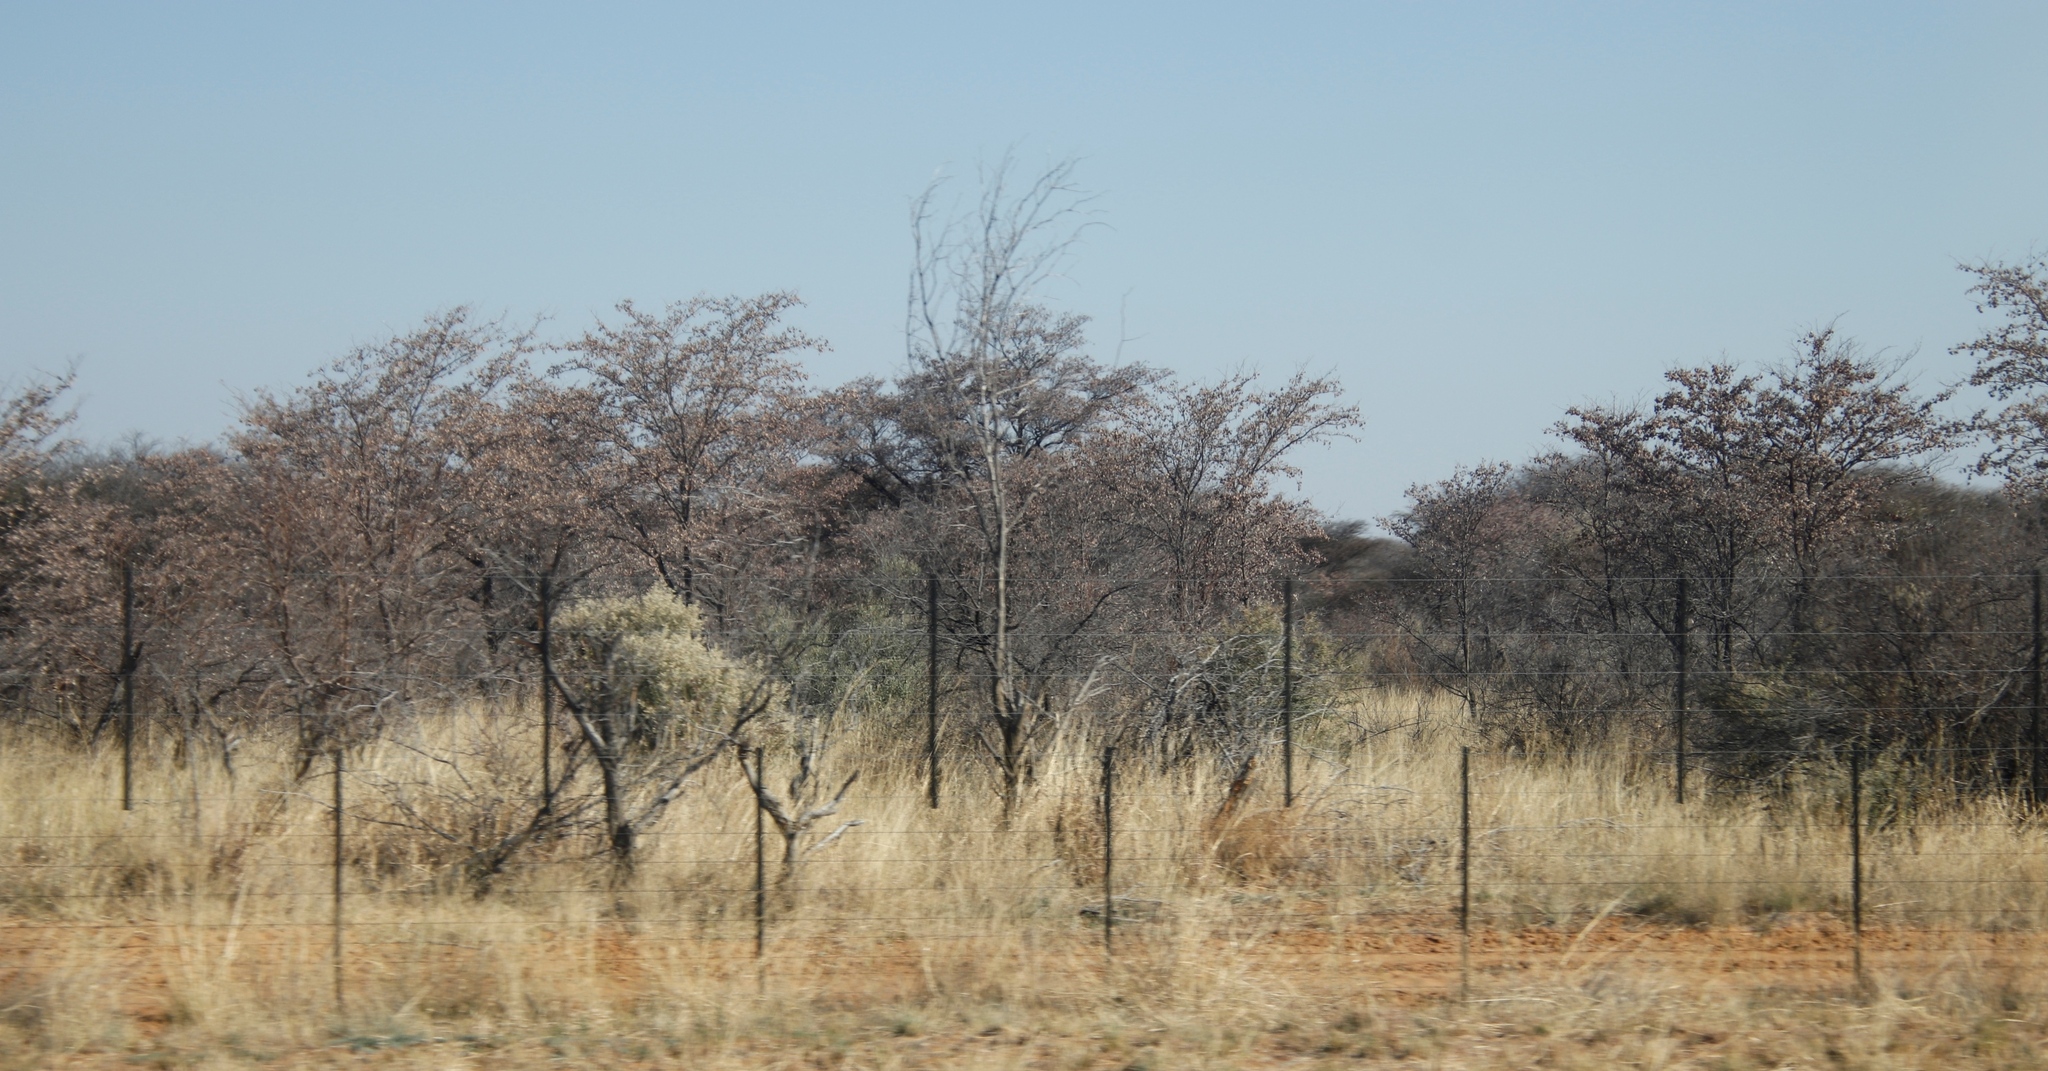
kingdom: Plantae
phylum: Tracheophyta
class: Magnoliopsida
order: Myrtales
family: Combretaceae
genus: Terminalia
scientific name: Terminalia sericea
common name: Clusterleaf
